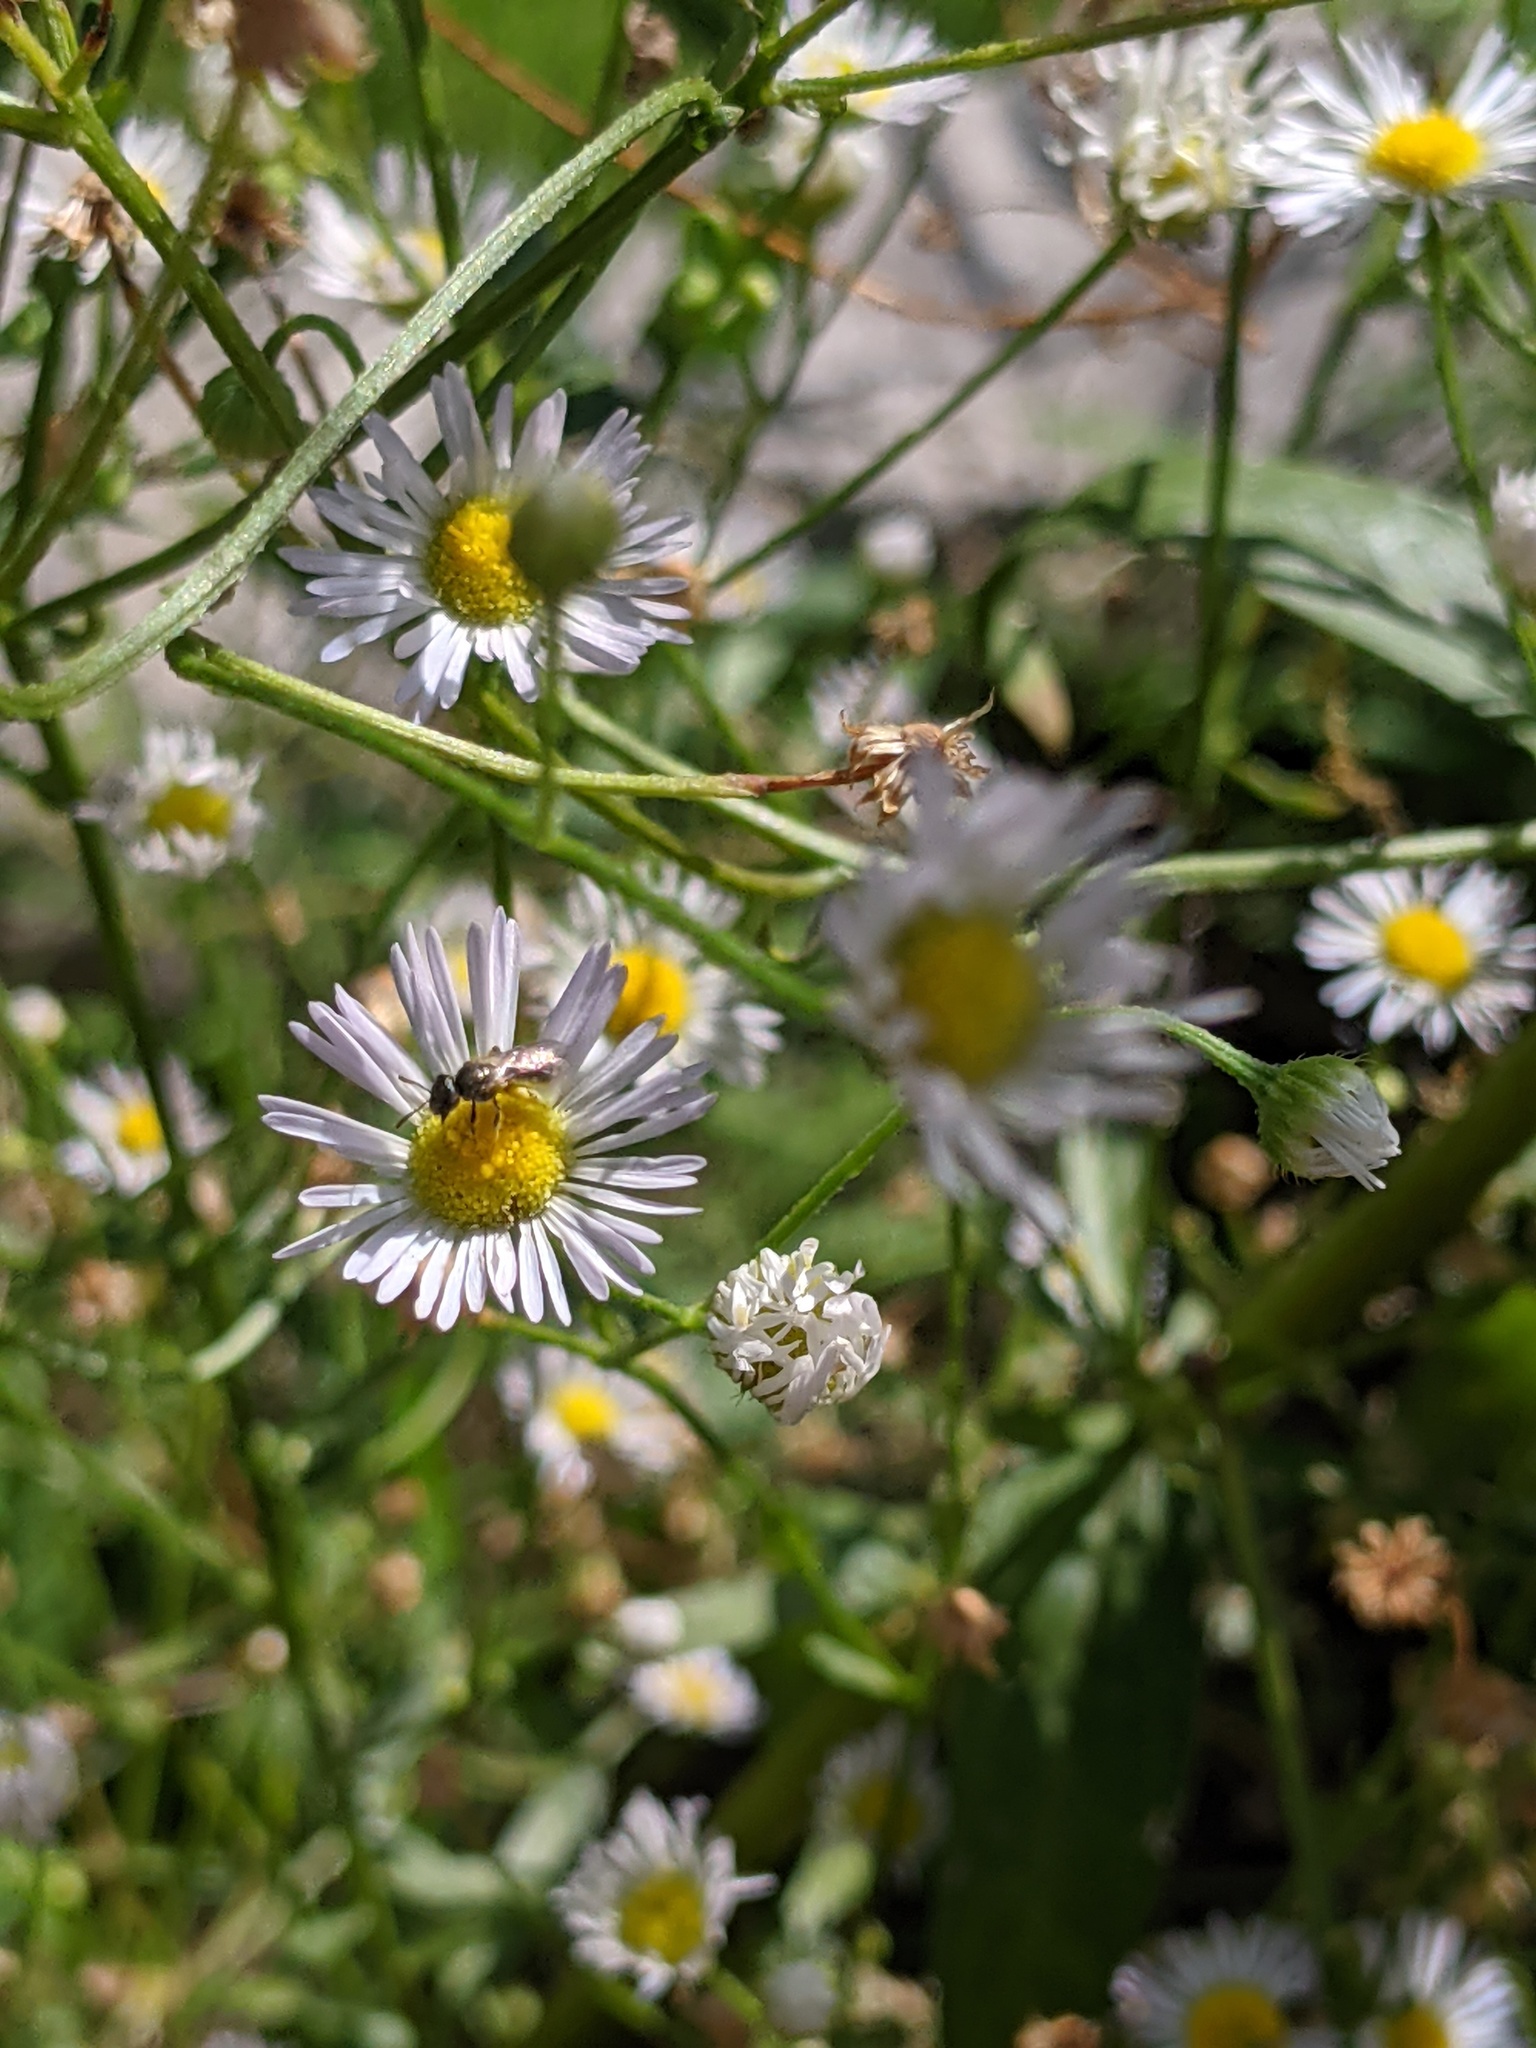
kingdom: Animalia
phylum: Arthropoda
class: Insecta
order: Hymenoptera
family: Halictidae
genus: Dialictus
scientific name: Dialictus
